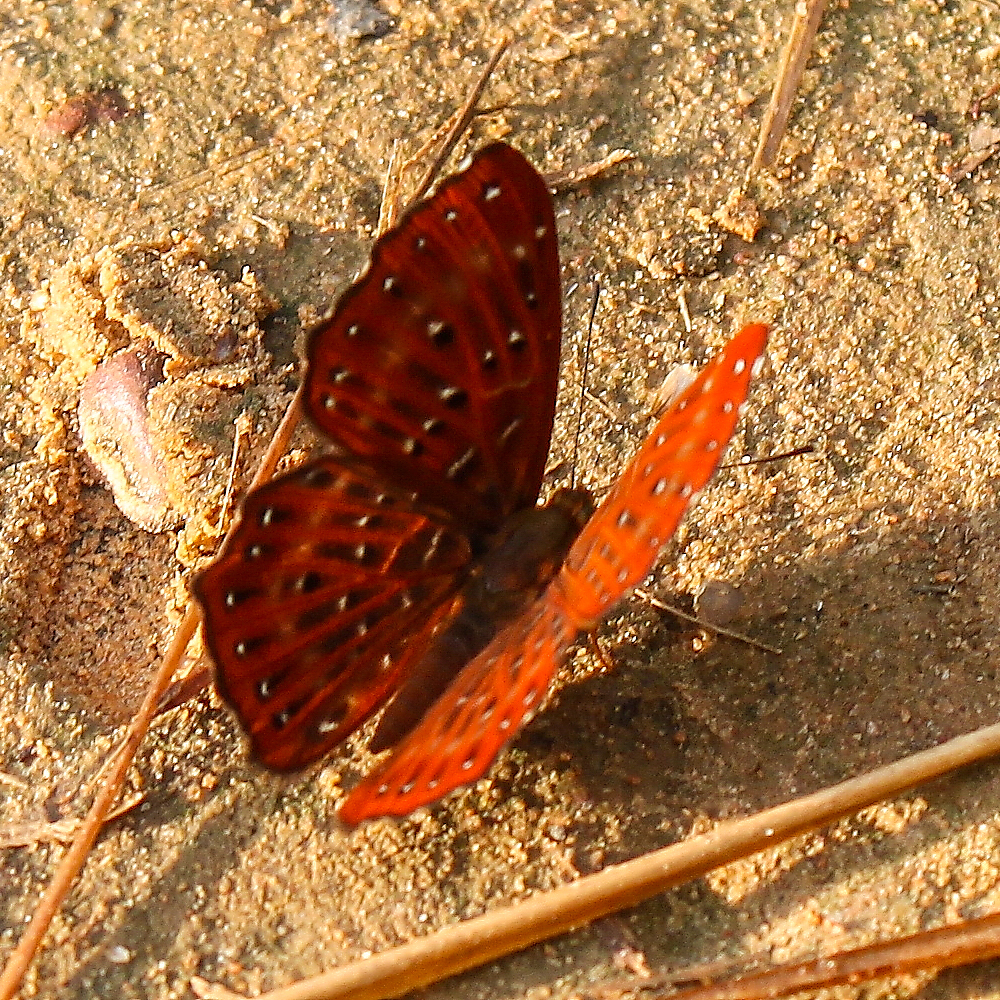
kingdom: Animalia
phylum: Arthropoda
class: Insecta
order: Lepidoptera
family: Riodinidae
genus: Zemeros
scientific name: Zemeros flegyas
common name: Punchinello
